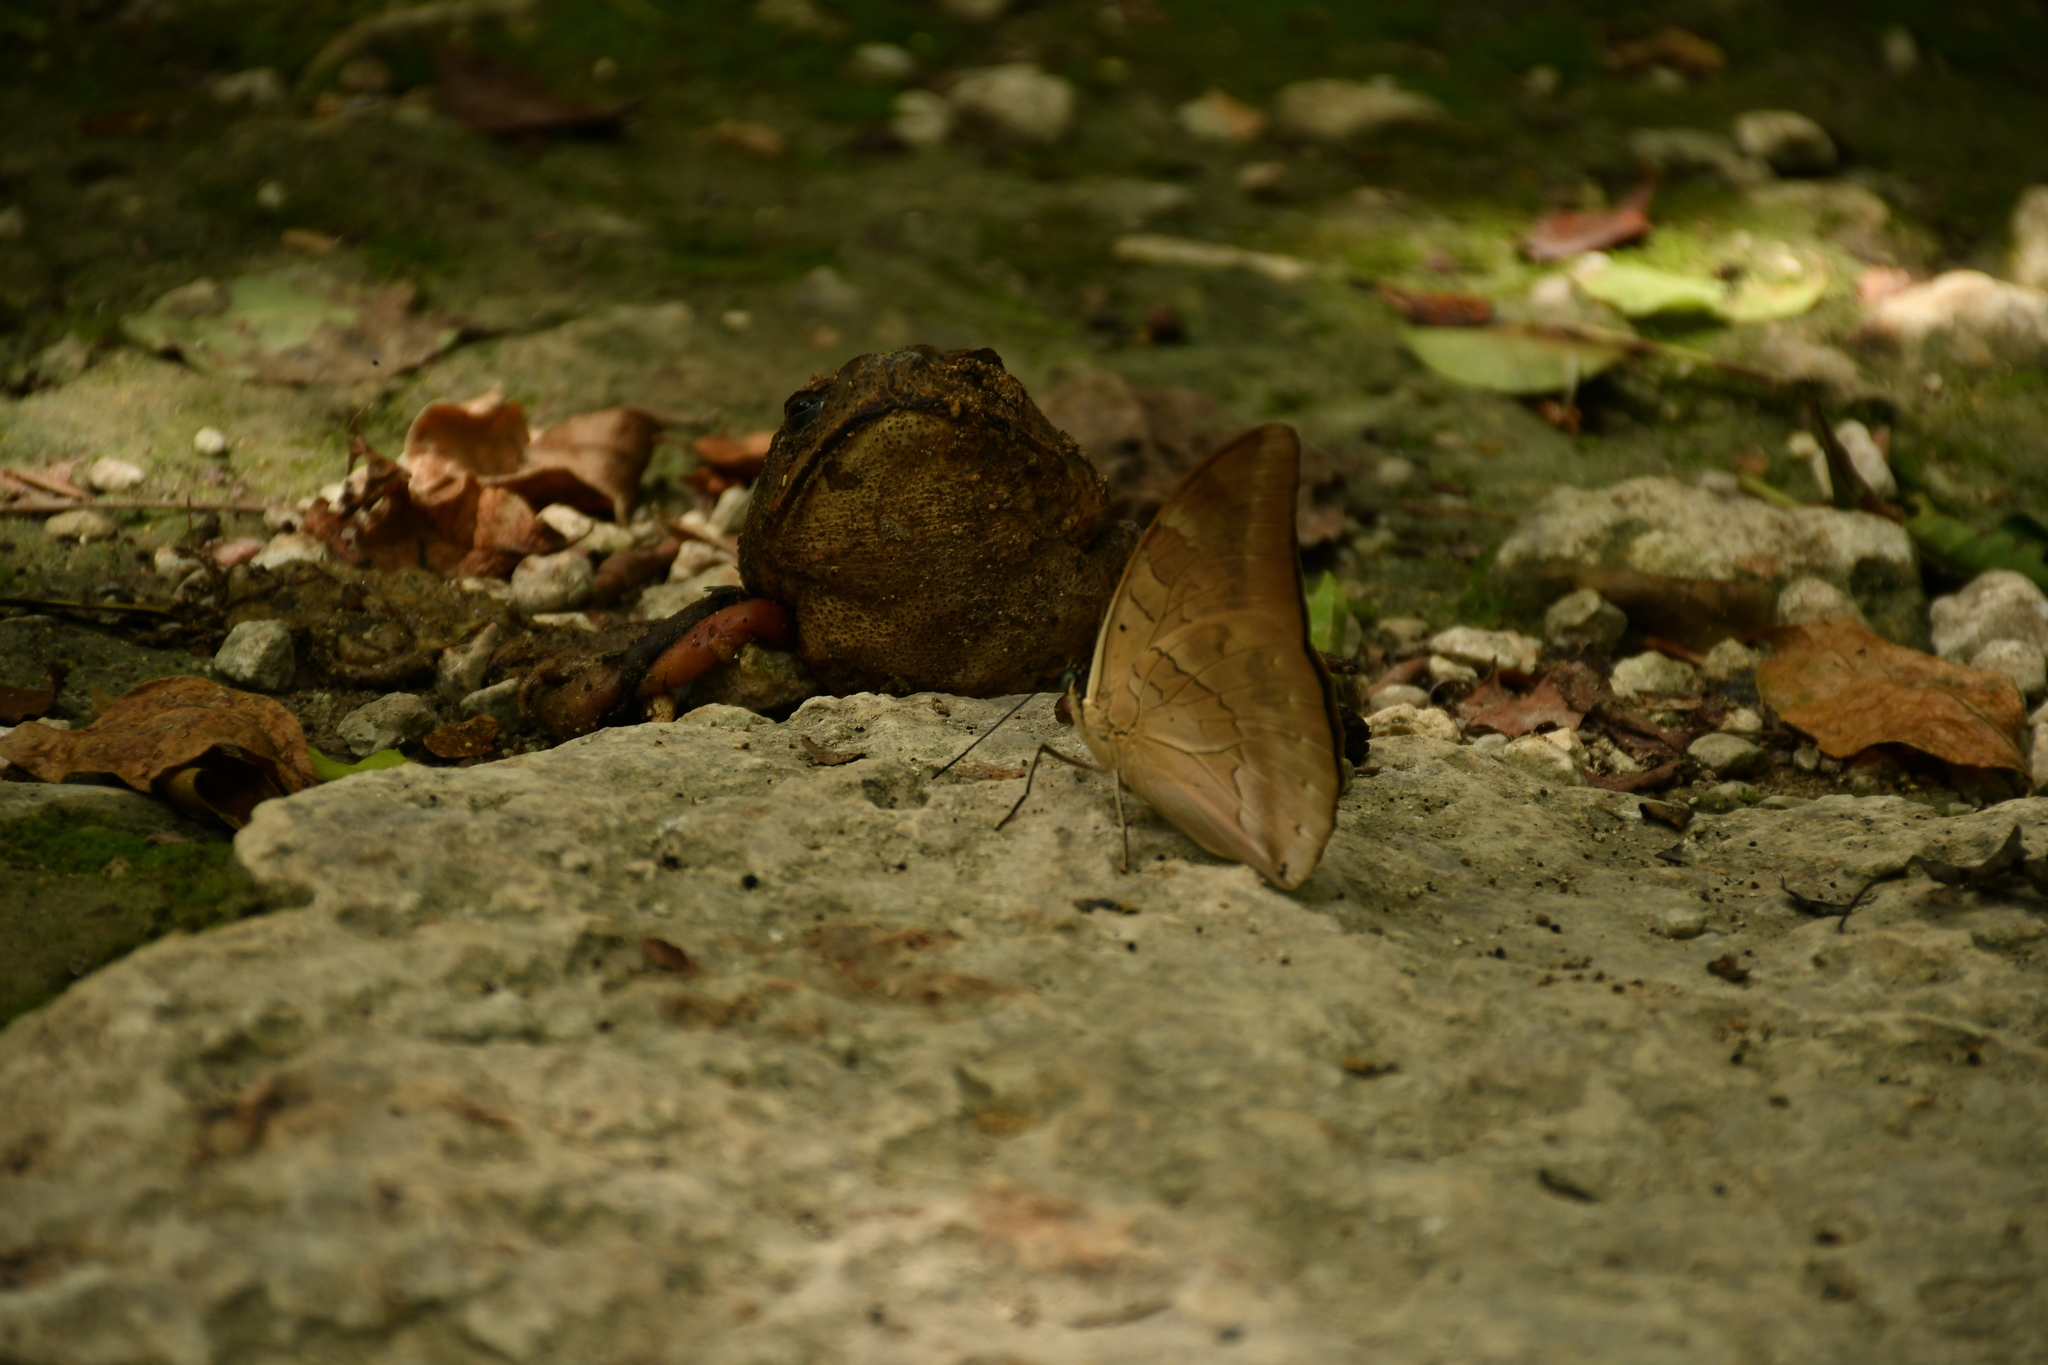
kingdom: Animalia
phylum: Arthropoda
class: Insecta
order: Lepidoptera
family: Nymphalidae
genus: Prepona
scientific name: Prepona Archaeoprepona demophon
